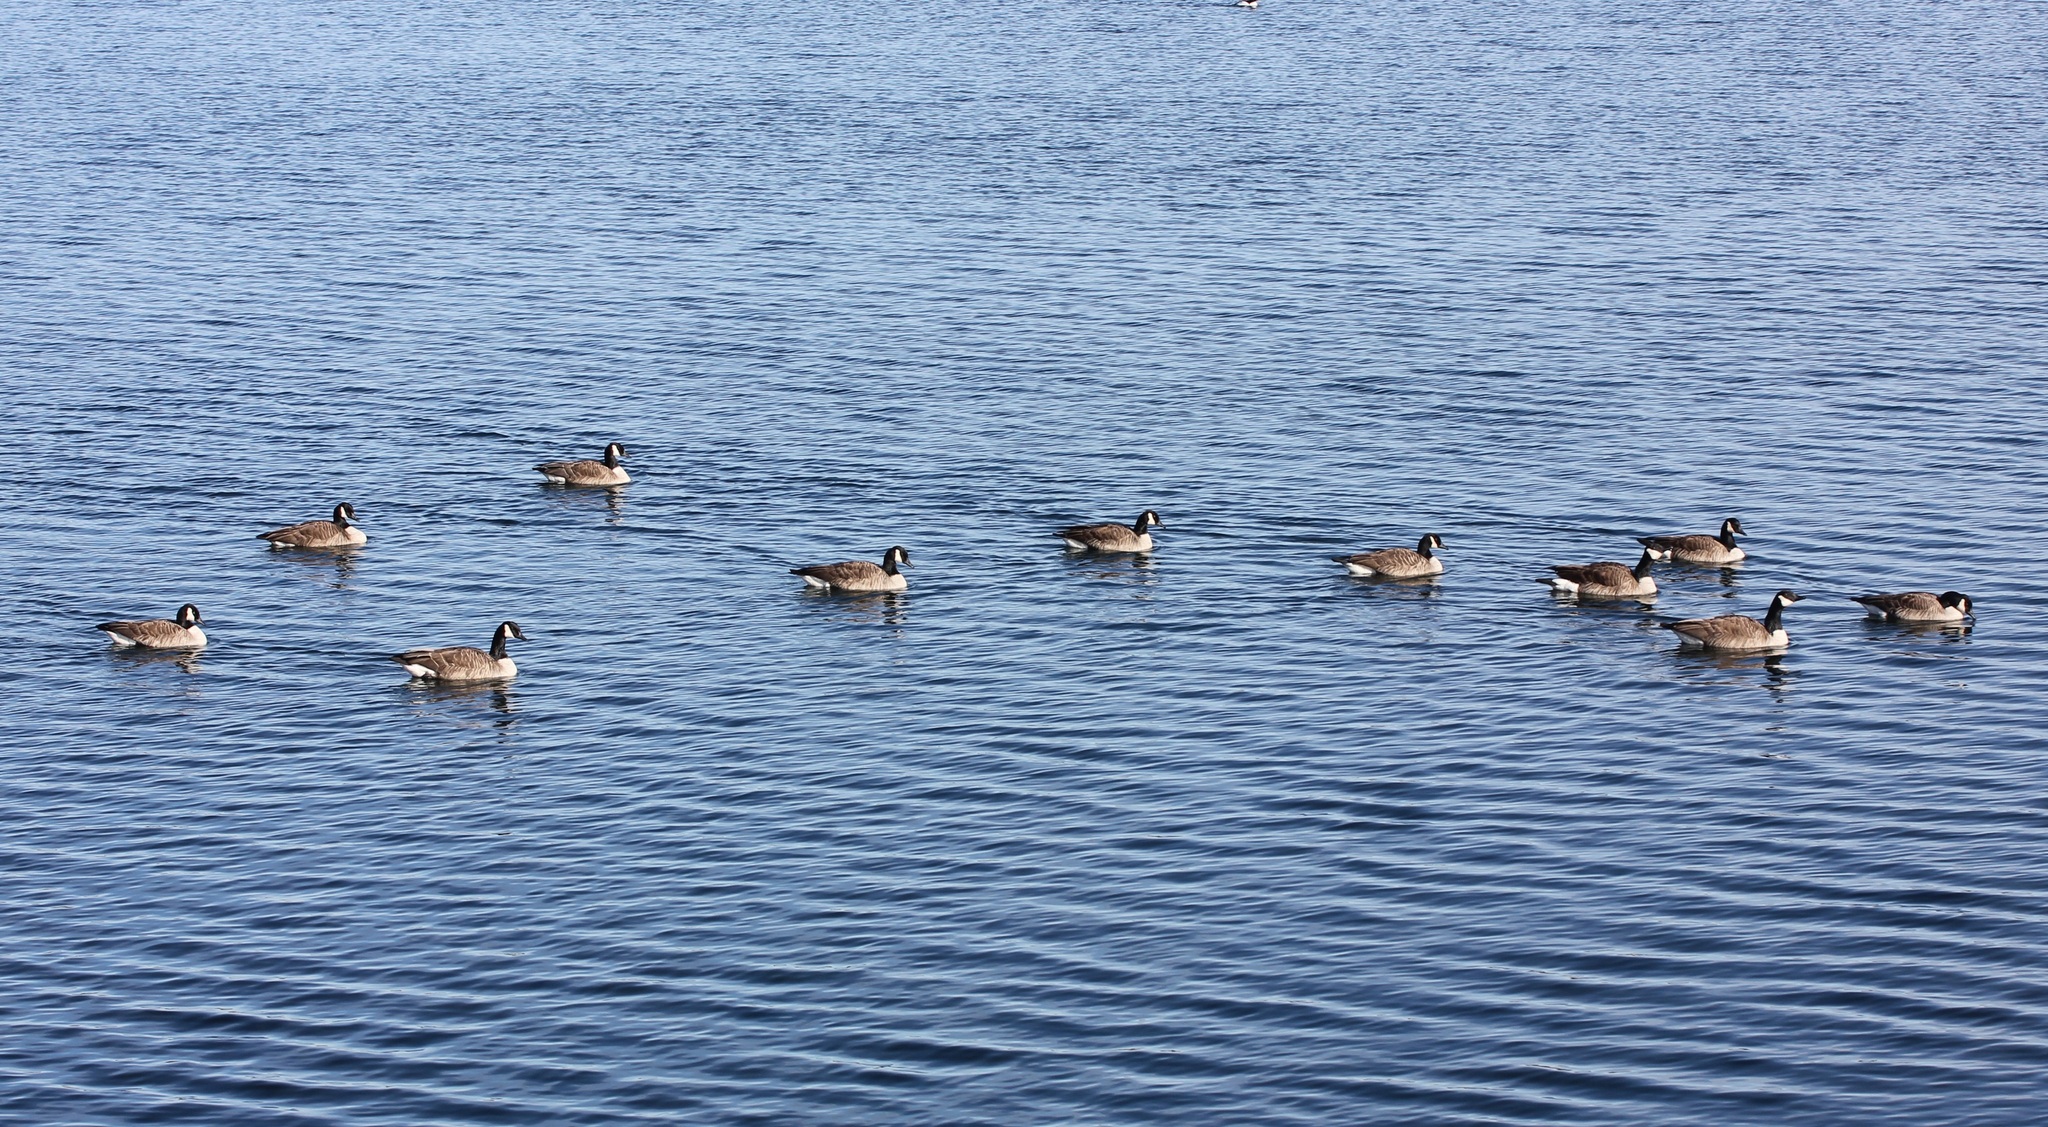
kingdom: Animalia
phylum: Chordata
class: Aves
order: Anseriformes
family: Anatidae
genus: Branta
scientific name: Branta canadensis
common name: Canada goose
